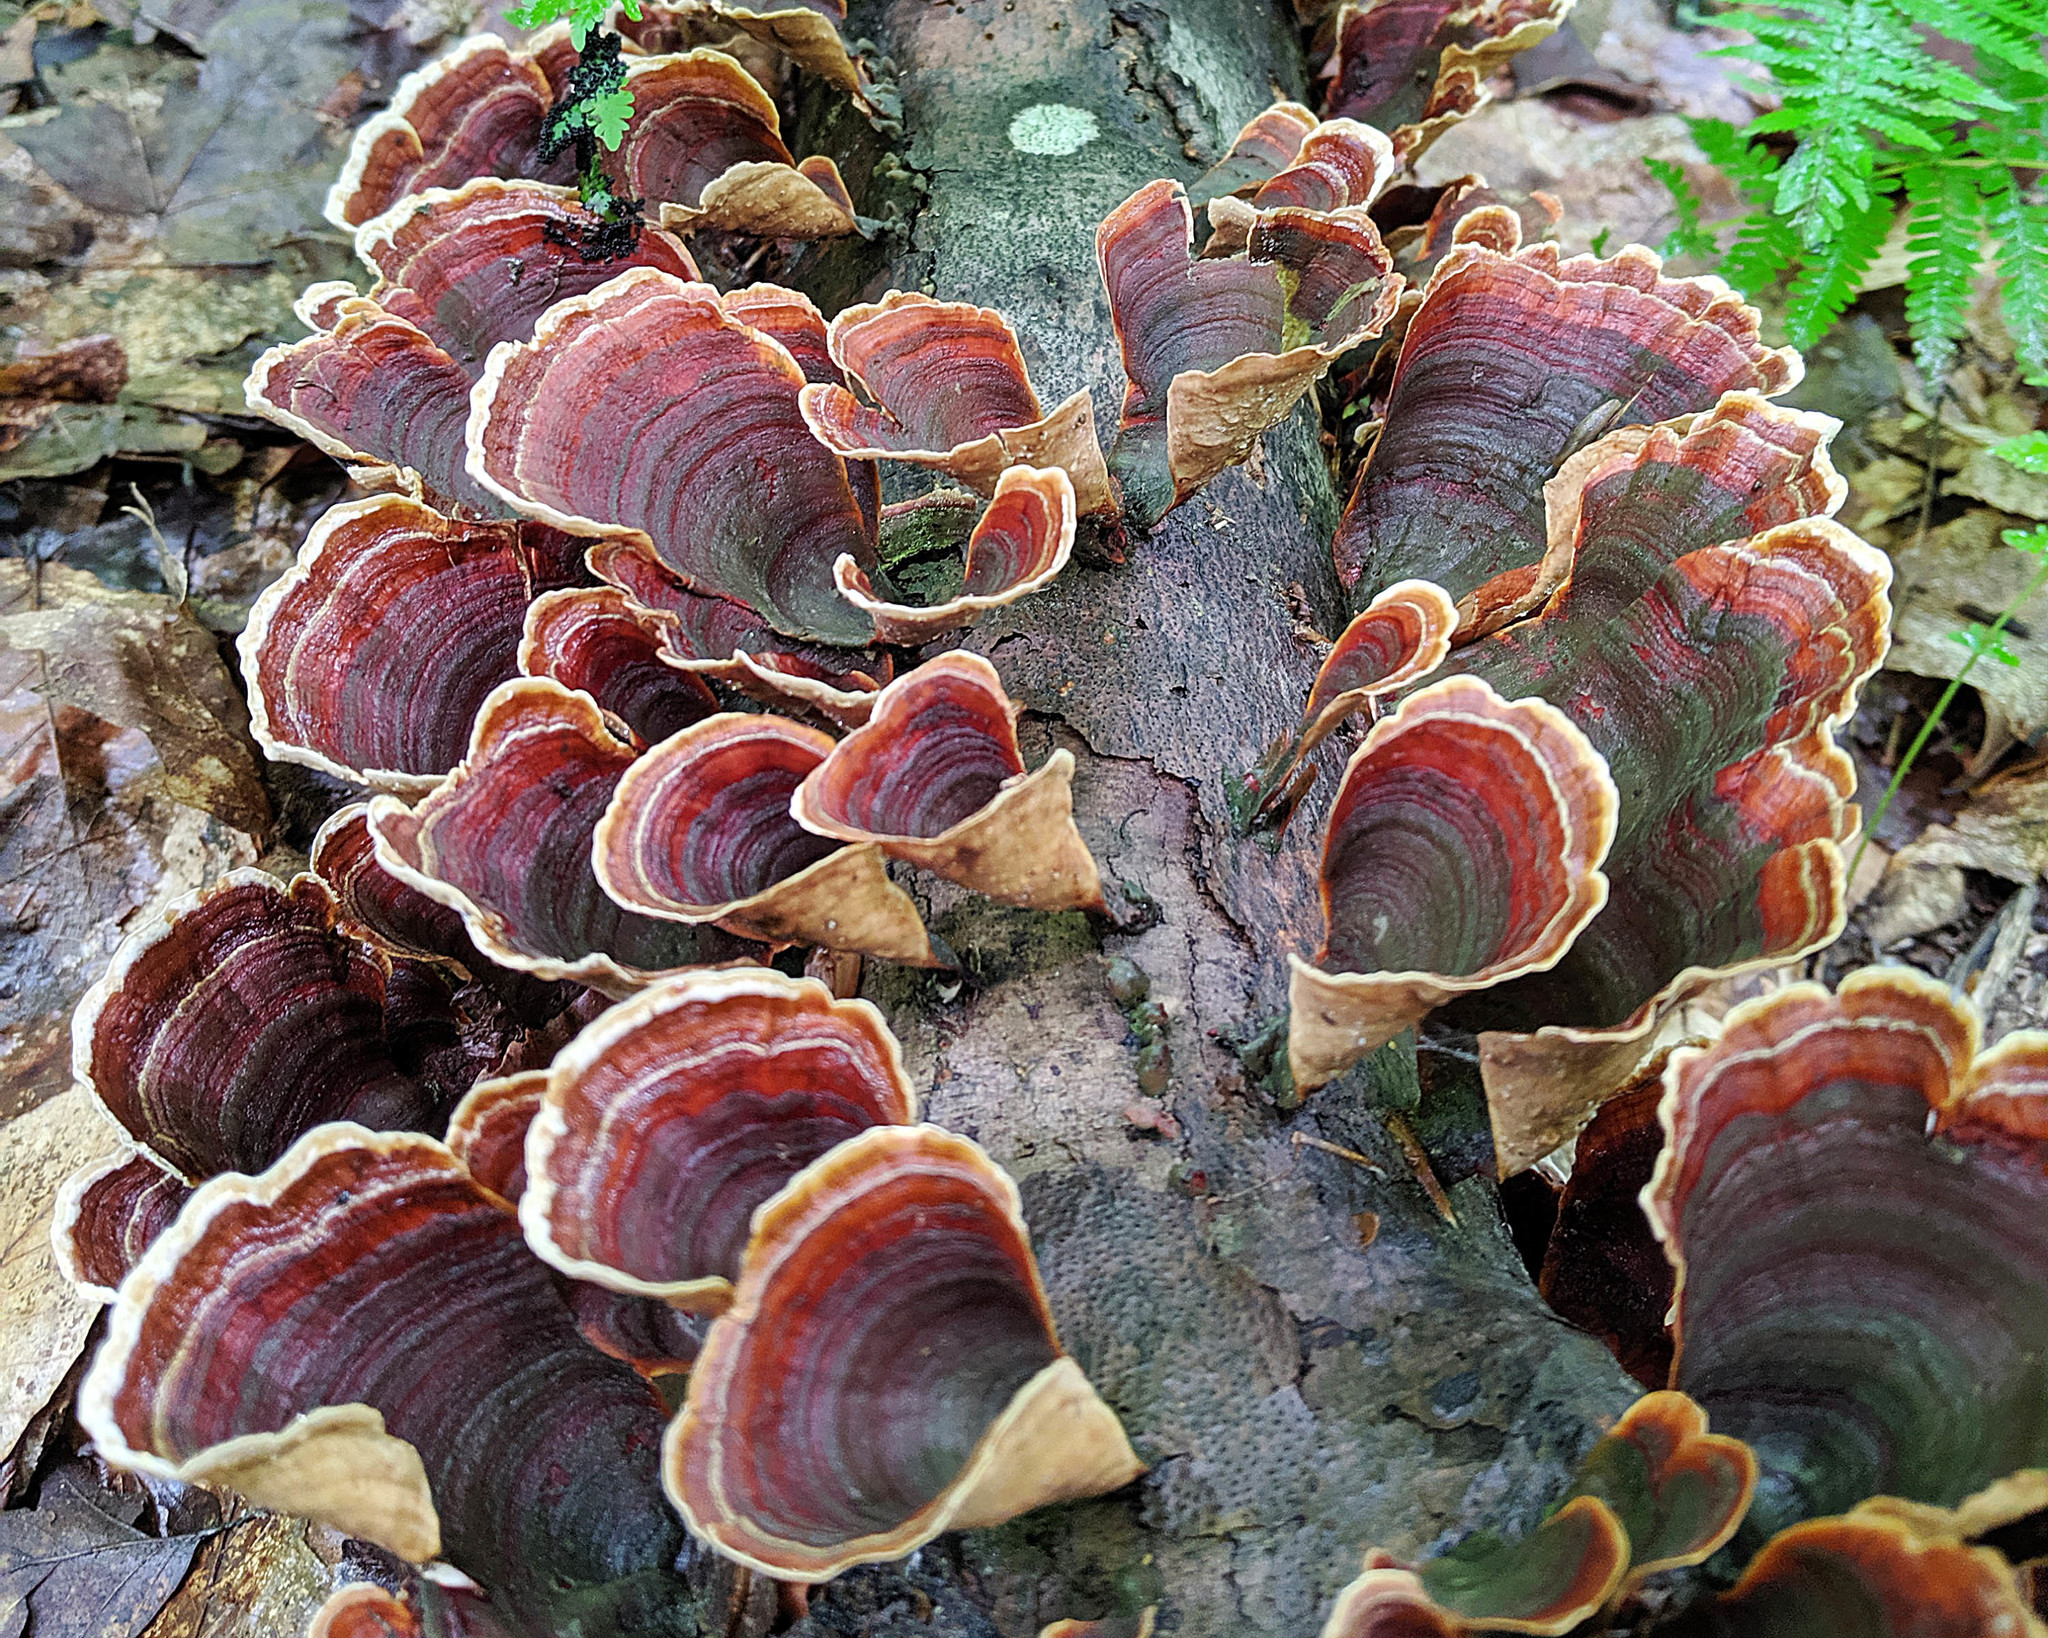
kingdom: Fungi
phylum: Basidiomycota
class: Agaricomycetes
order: Russulales
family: Stereaceae
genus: Stereum
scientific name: Stereum ostrea
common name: False turkeytail
